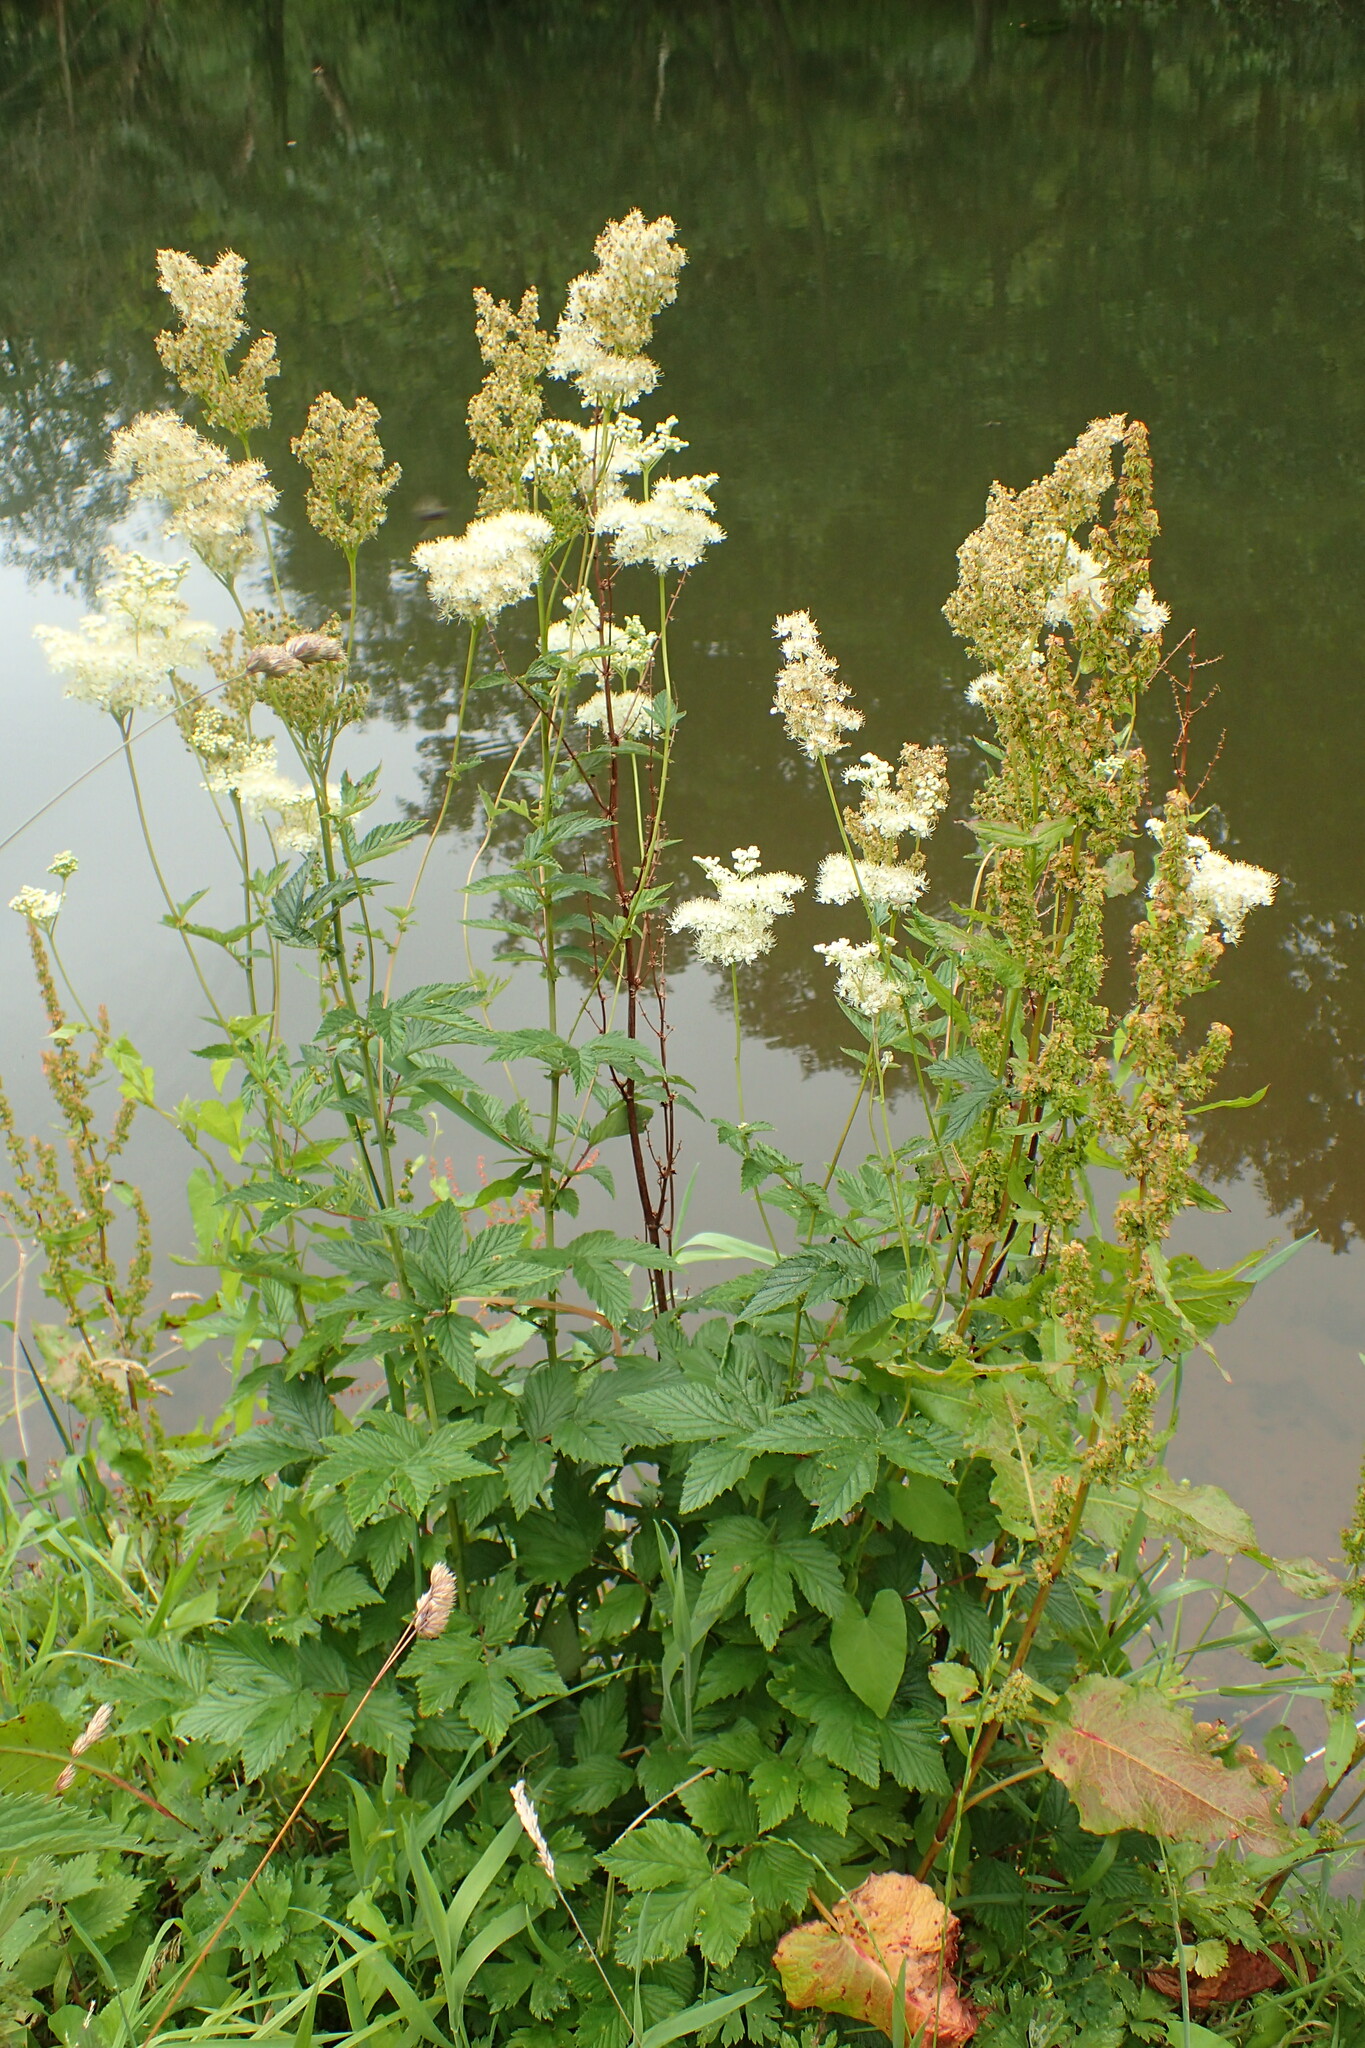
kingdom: Plantae
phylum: Tracheophyta
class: Magnoliopsida
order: Rosales
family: Rosaceae
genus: Filipendula
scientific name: Filipendula ulmaria
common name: Meadowsweet
